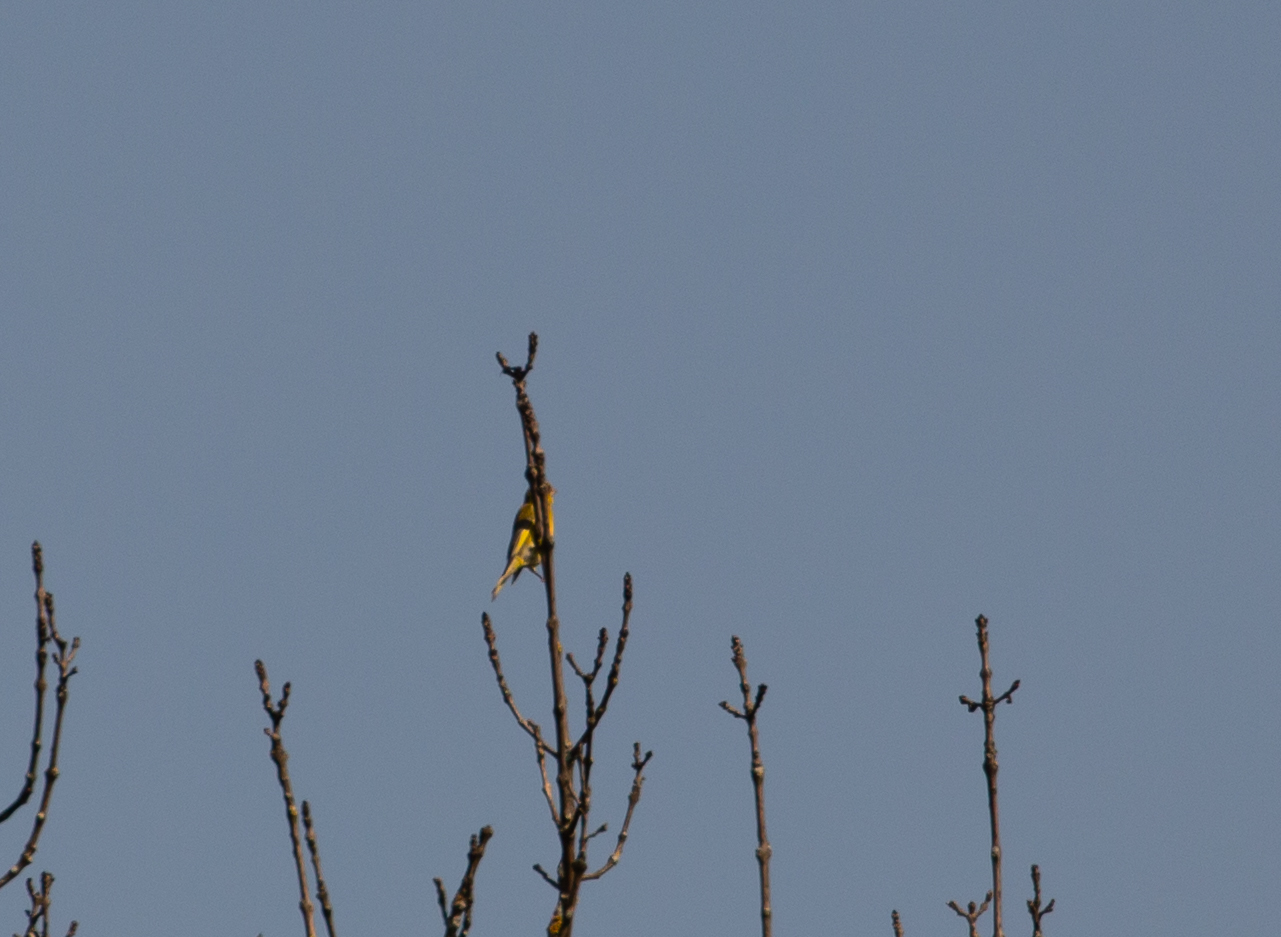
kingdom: Plantae
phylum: Tracheophyta
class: Liliopsida
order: Poales
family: Poaceae
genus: Chloris
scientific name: Chloris chloris
